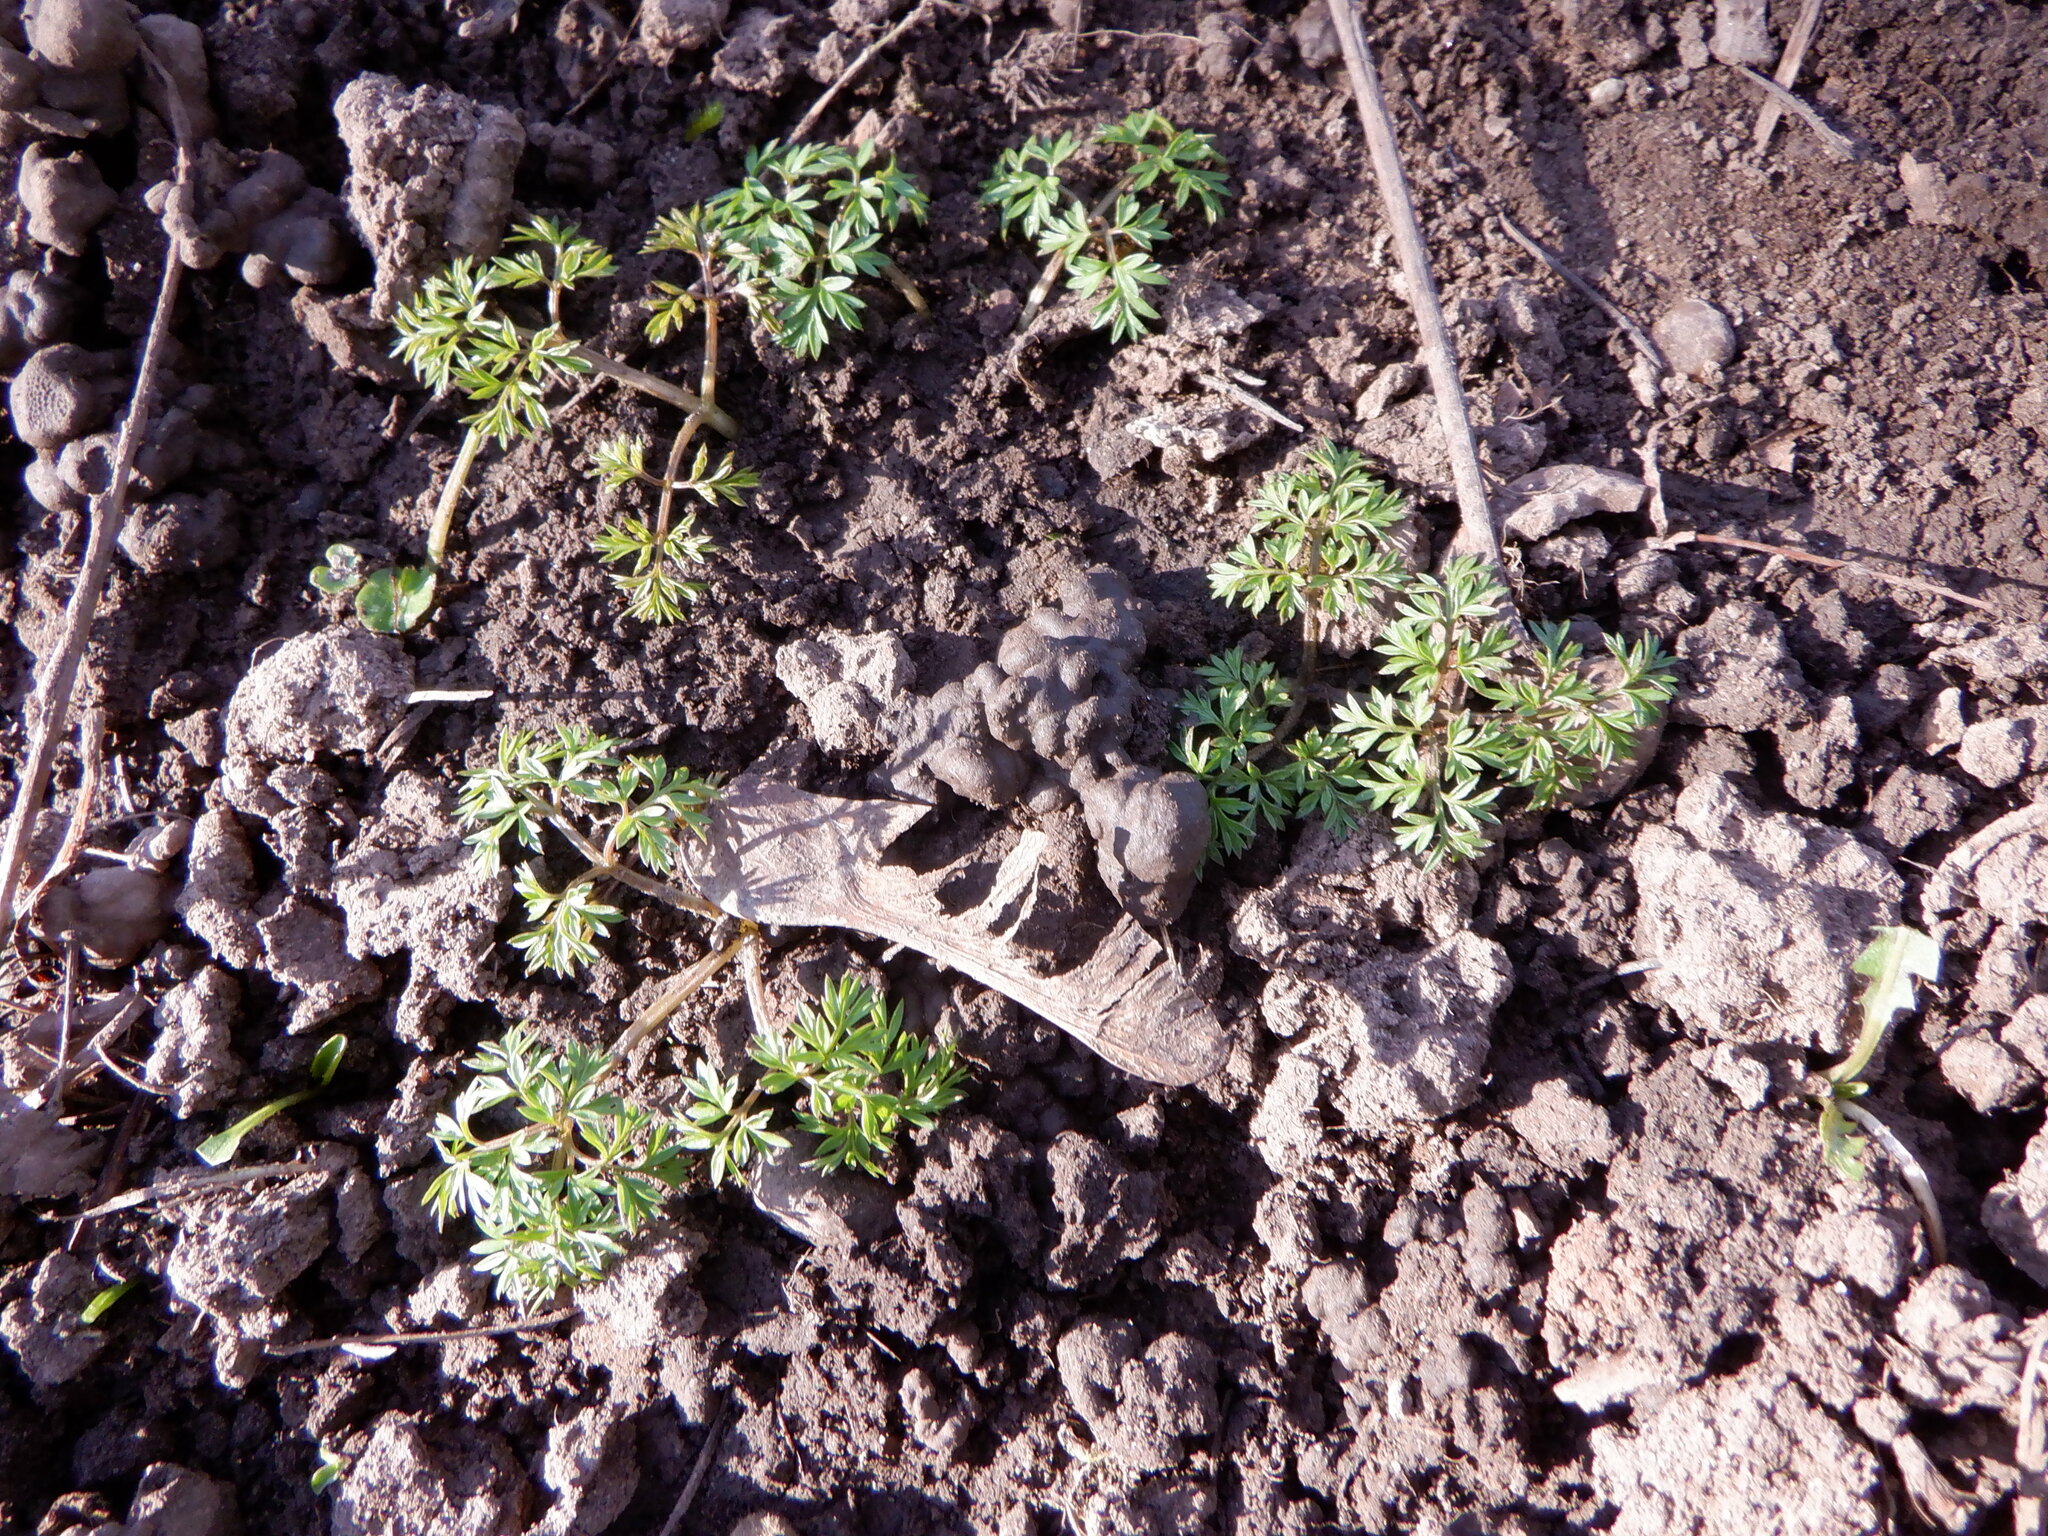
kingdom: Plantae
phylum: Tracheophyta
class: Magnoliopsida
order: Apiales
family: Apiaceae
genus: Conopodium
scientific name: Conopodium majus
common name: Pignut
